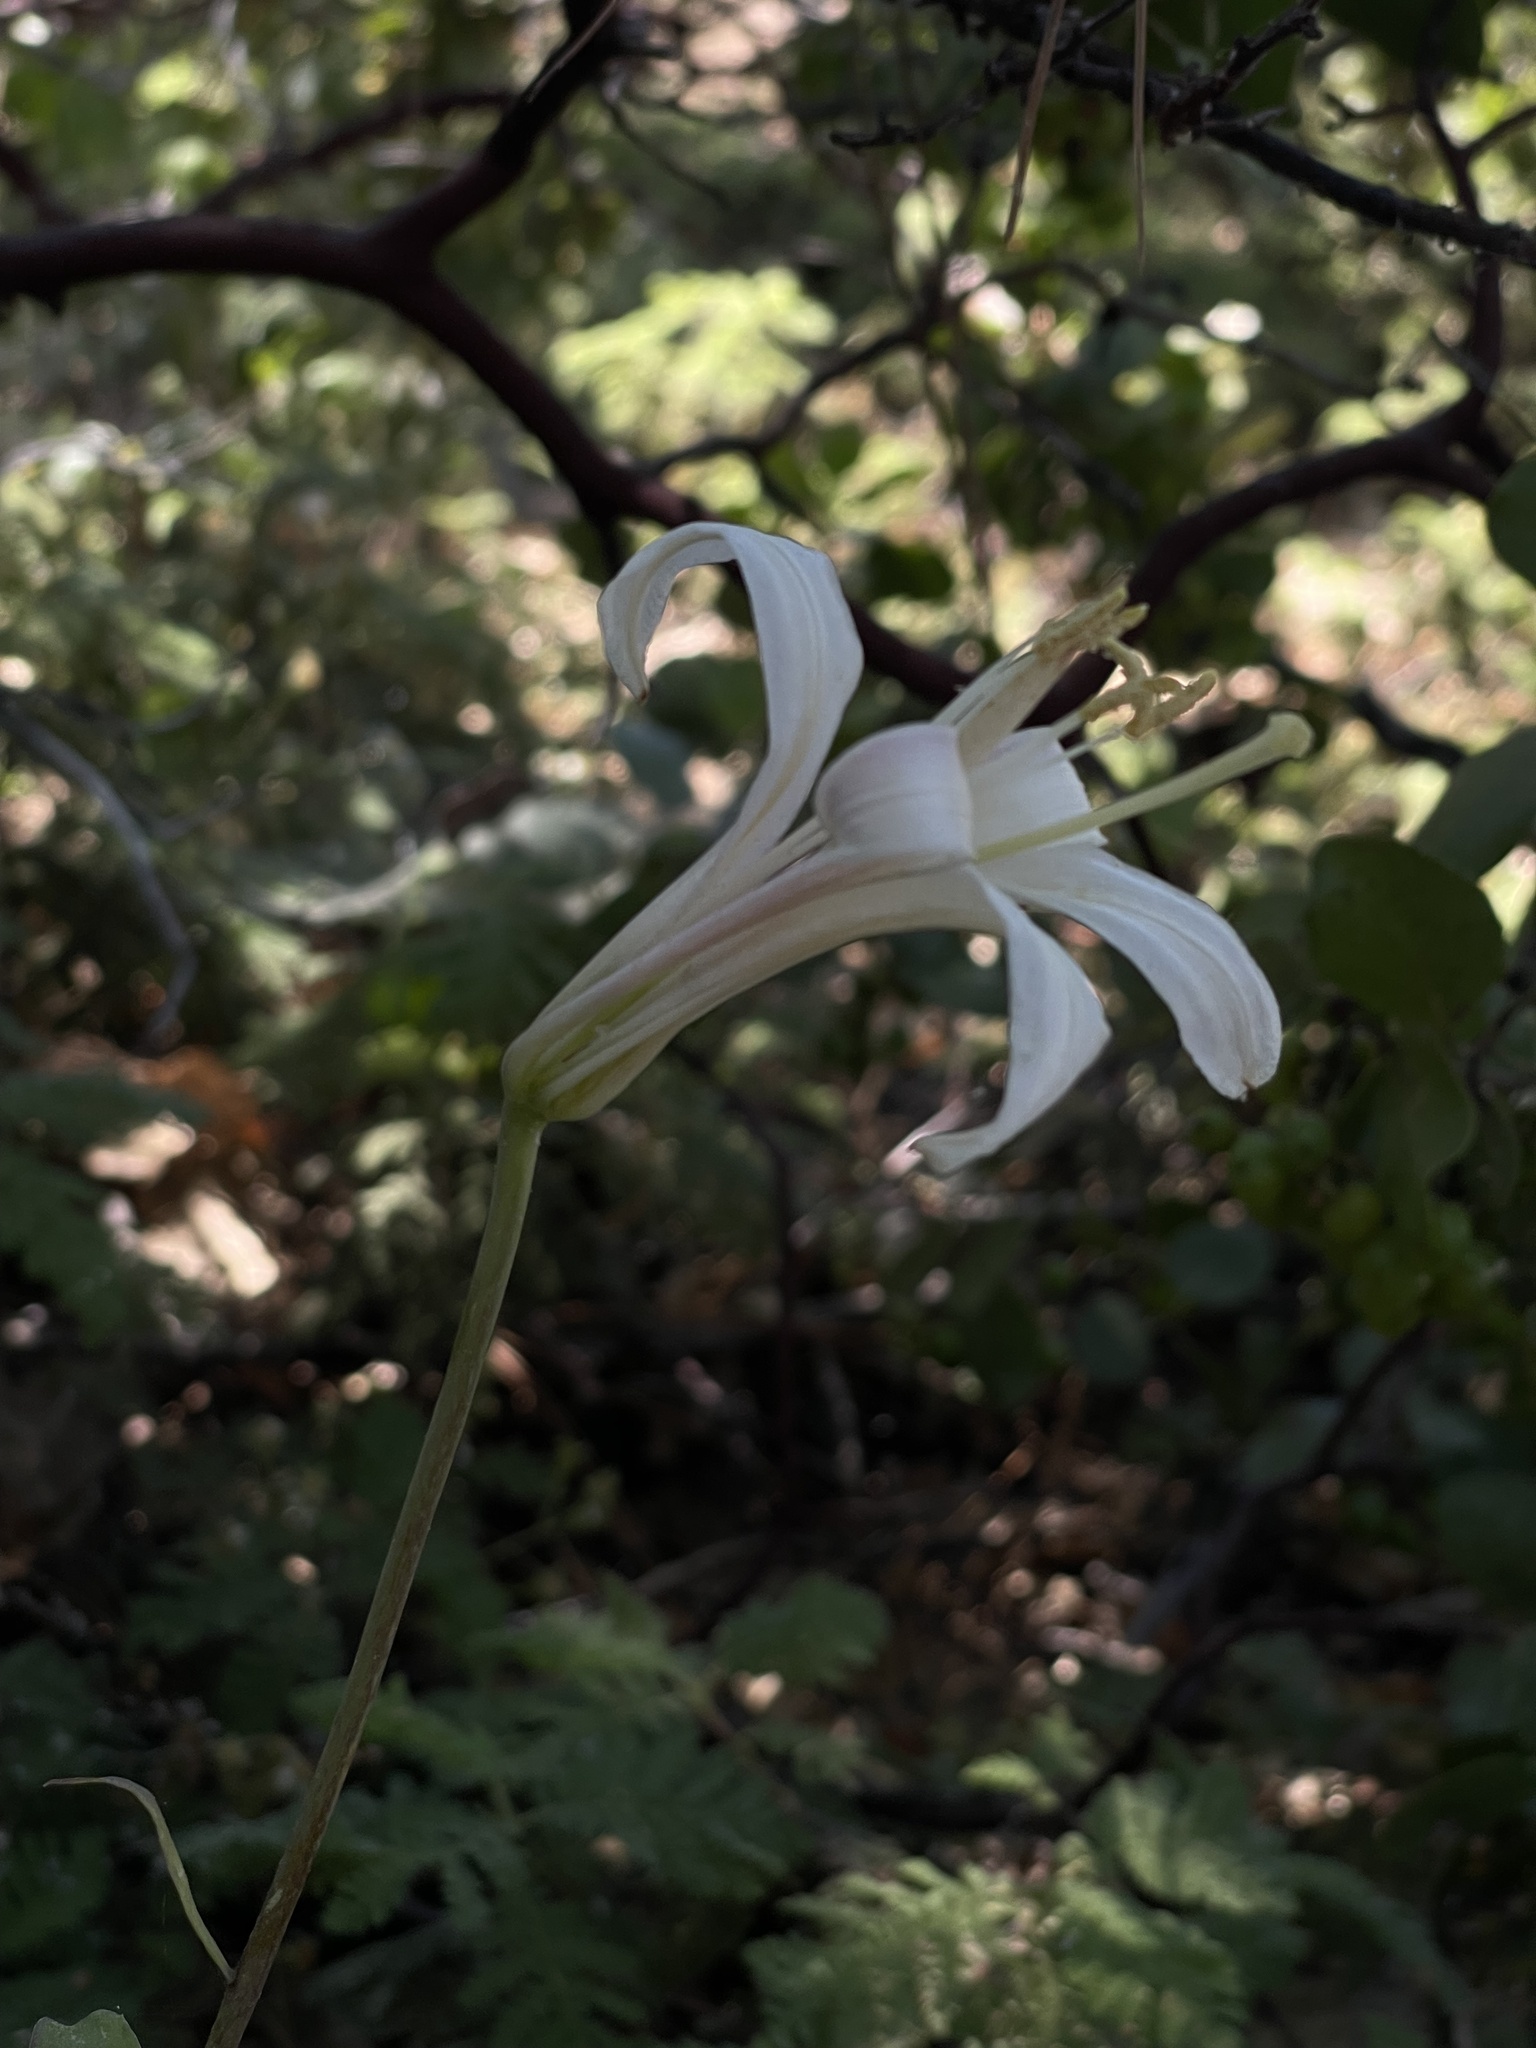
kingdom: Plantae
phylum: Tracheophyta
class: Liliopsida
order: Liliales
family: Liliaceae
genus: Lilium
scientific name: Lilium washingtonianum
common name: Washington lily
